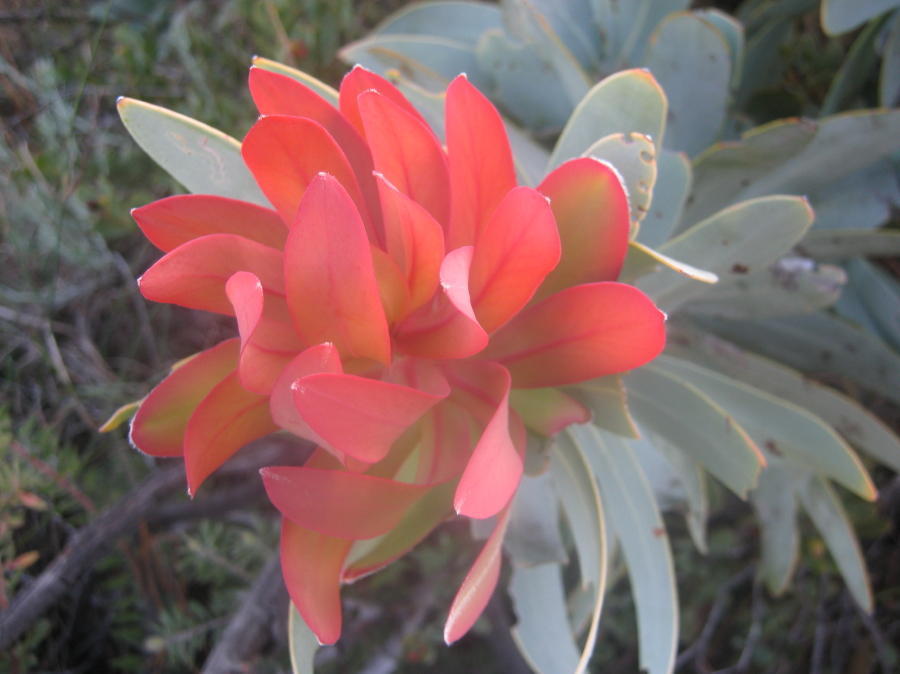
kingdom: Plantae
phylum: Tracheophyta
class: Magnoliopsida
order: Proteales
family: Proteaceae
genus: Protea
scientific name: Protea nitida
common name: Tree protea
